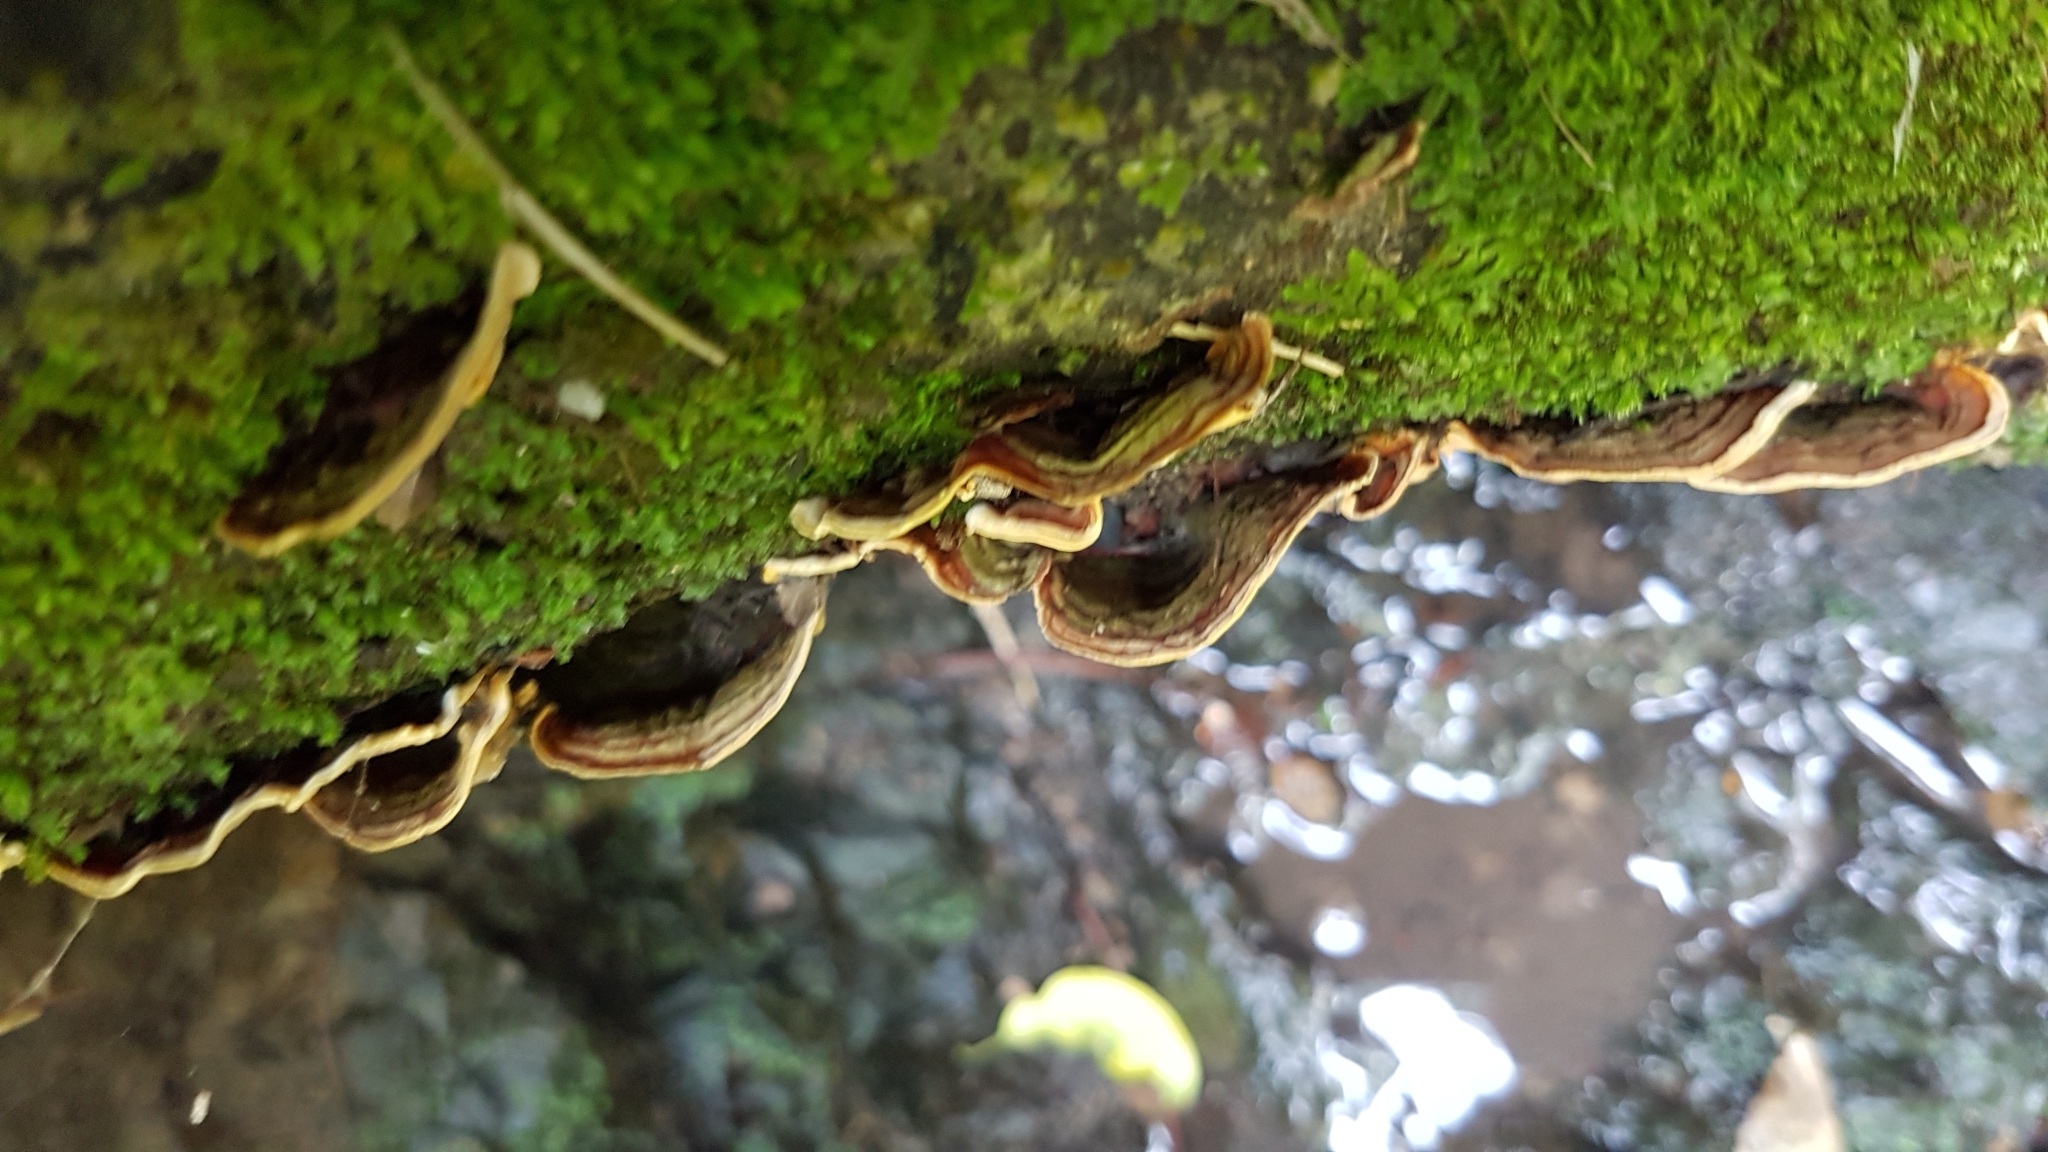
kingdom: Fungi
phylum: Basidiomycota
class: Agaricomycetes
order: Russulales
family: Stereaceae
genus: Stereum
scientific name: Stereum versicolor
